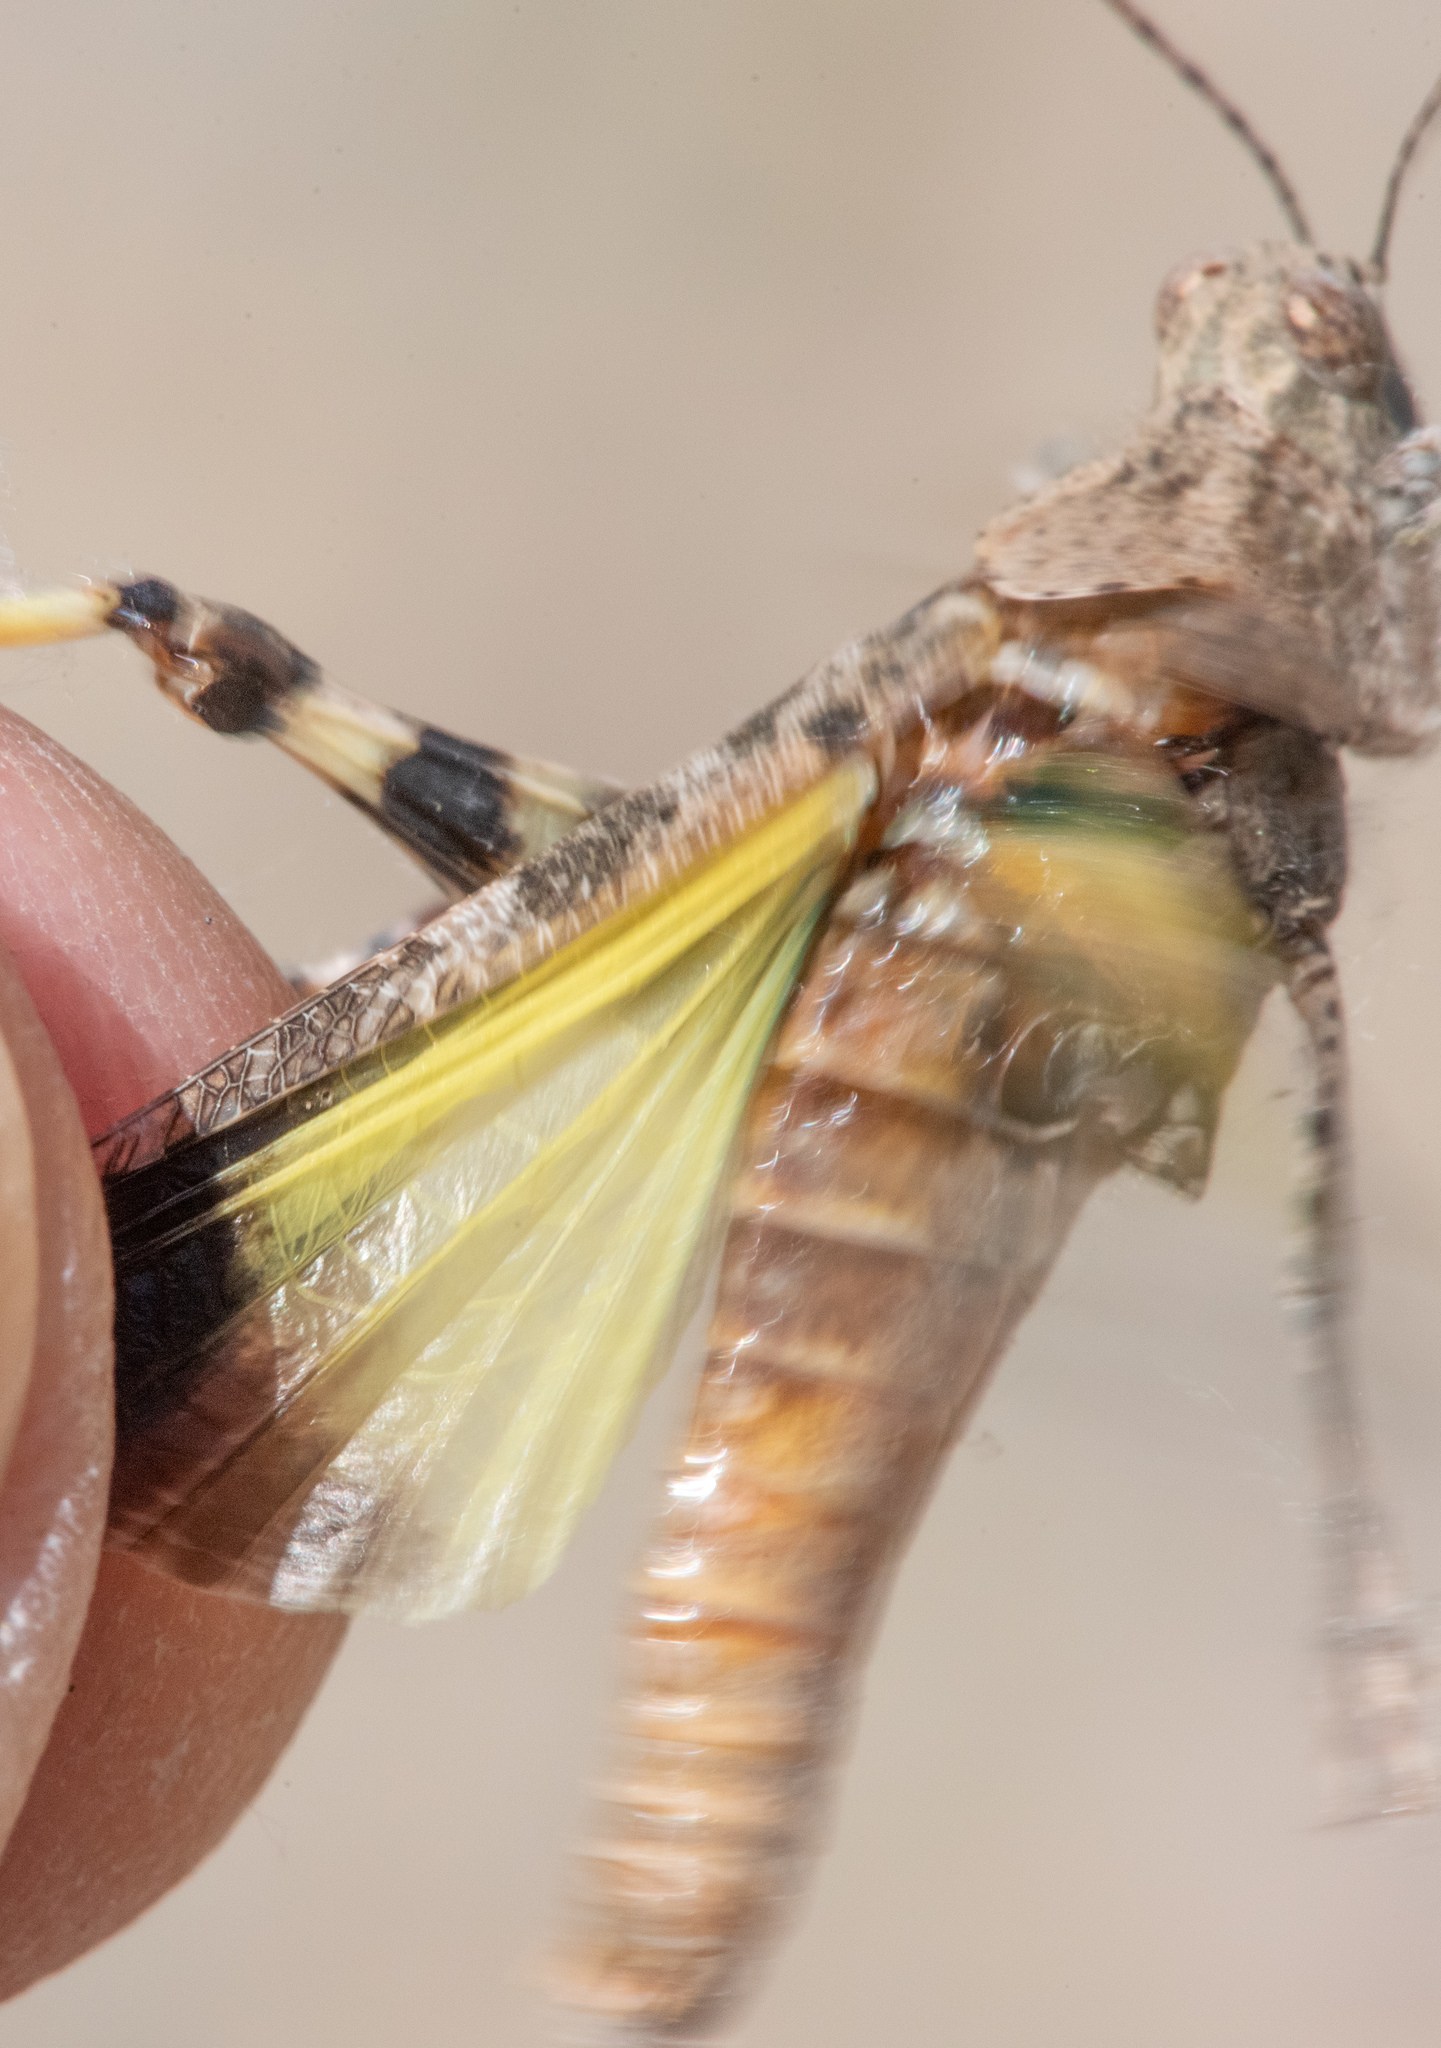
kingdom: Animalia
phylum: Arthropoda
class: Insecta
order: Orthoptera
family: Acrididae
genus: Trimerotropis
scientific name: Trimerotropis pallidipennis
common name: Pallid-winged grasshopper
